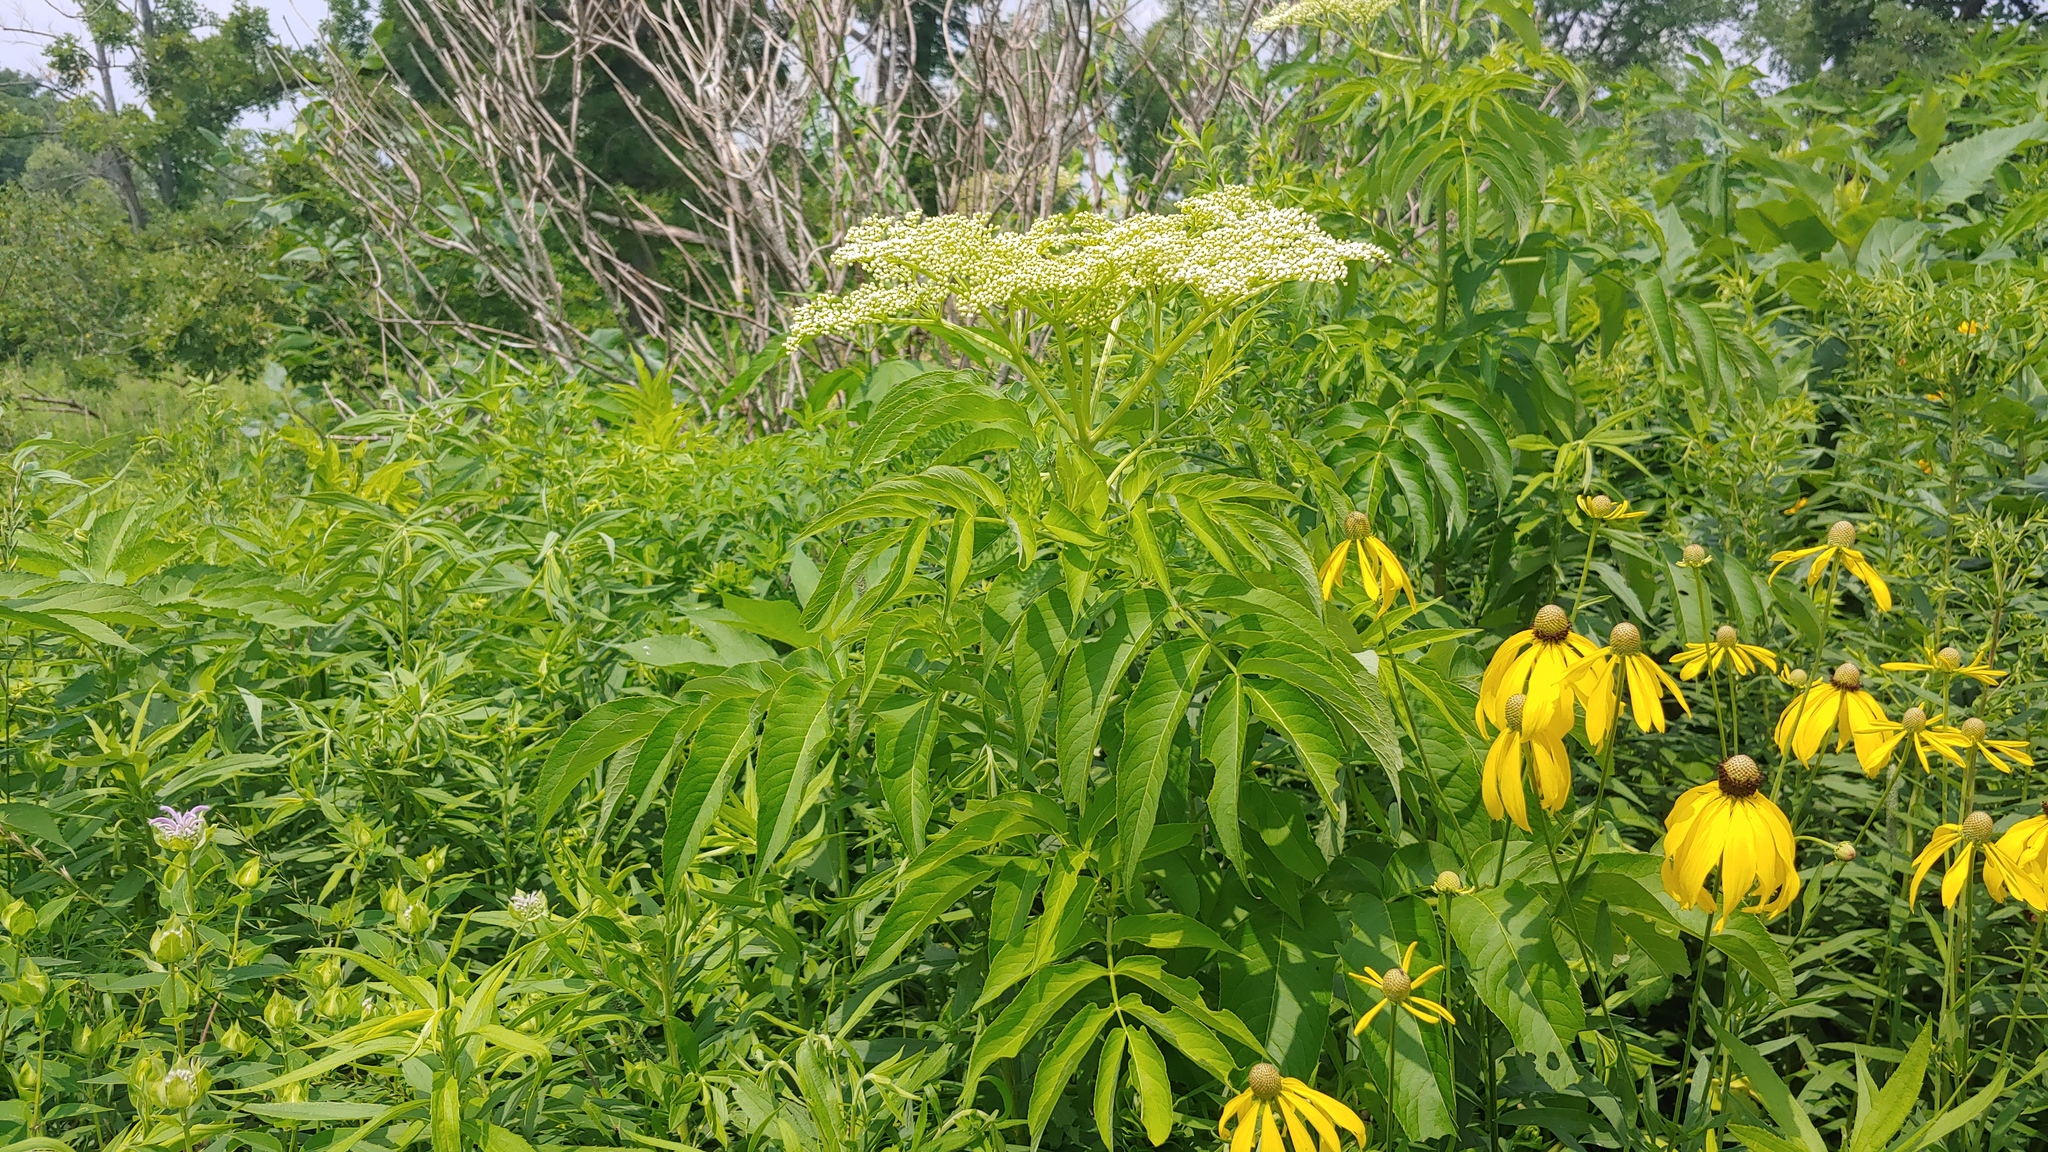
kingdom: Plantae
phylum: Tracheophyta
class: Magnoliopsida
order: Dipsacales
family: Viburnaceae
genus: Sambucus
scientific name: Sambucus canadensis
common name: American elder
